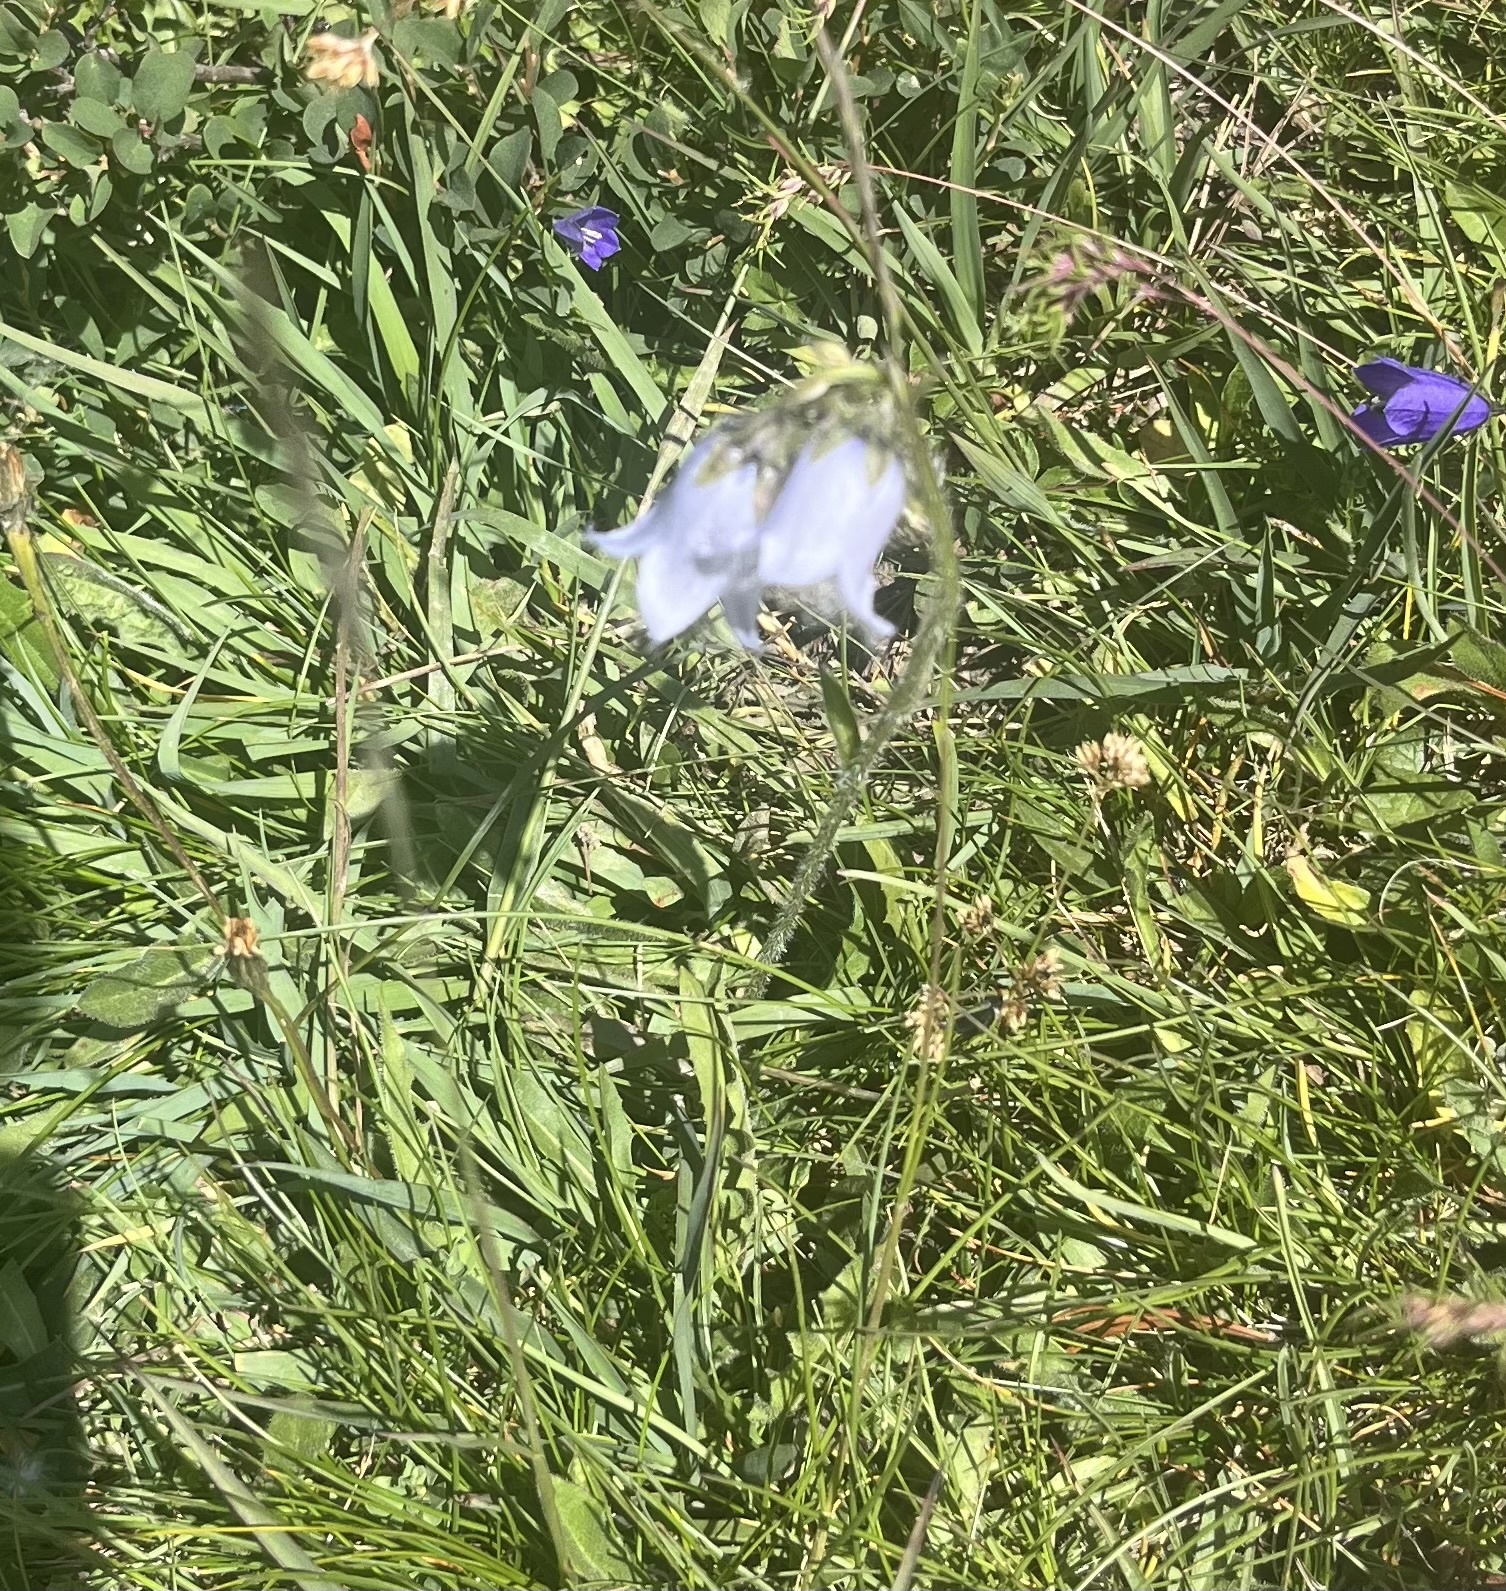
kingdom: Plantae
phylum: Tracheophyta
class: Magnoliopsida
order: Asterales
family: Campanulaceae
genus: Campanula
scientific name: Campanula barbata
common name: Bearded bellflower
